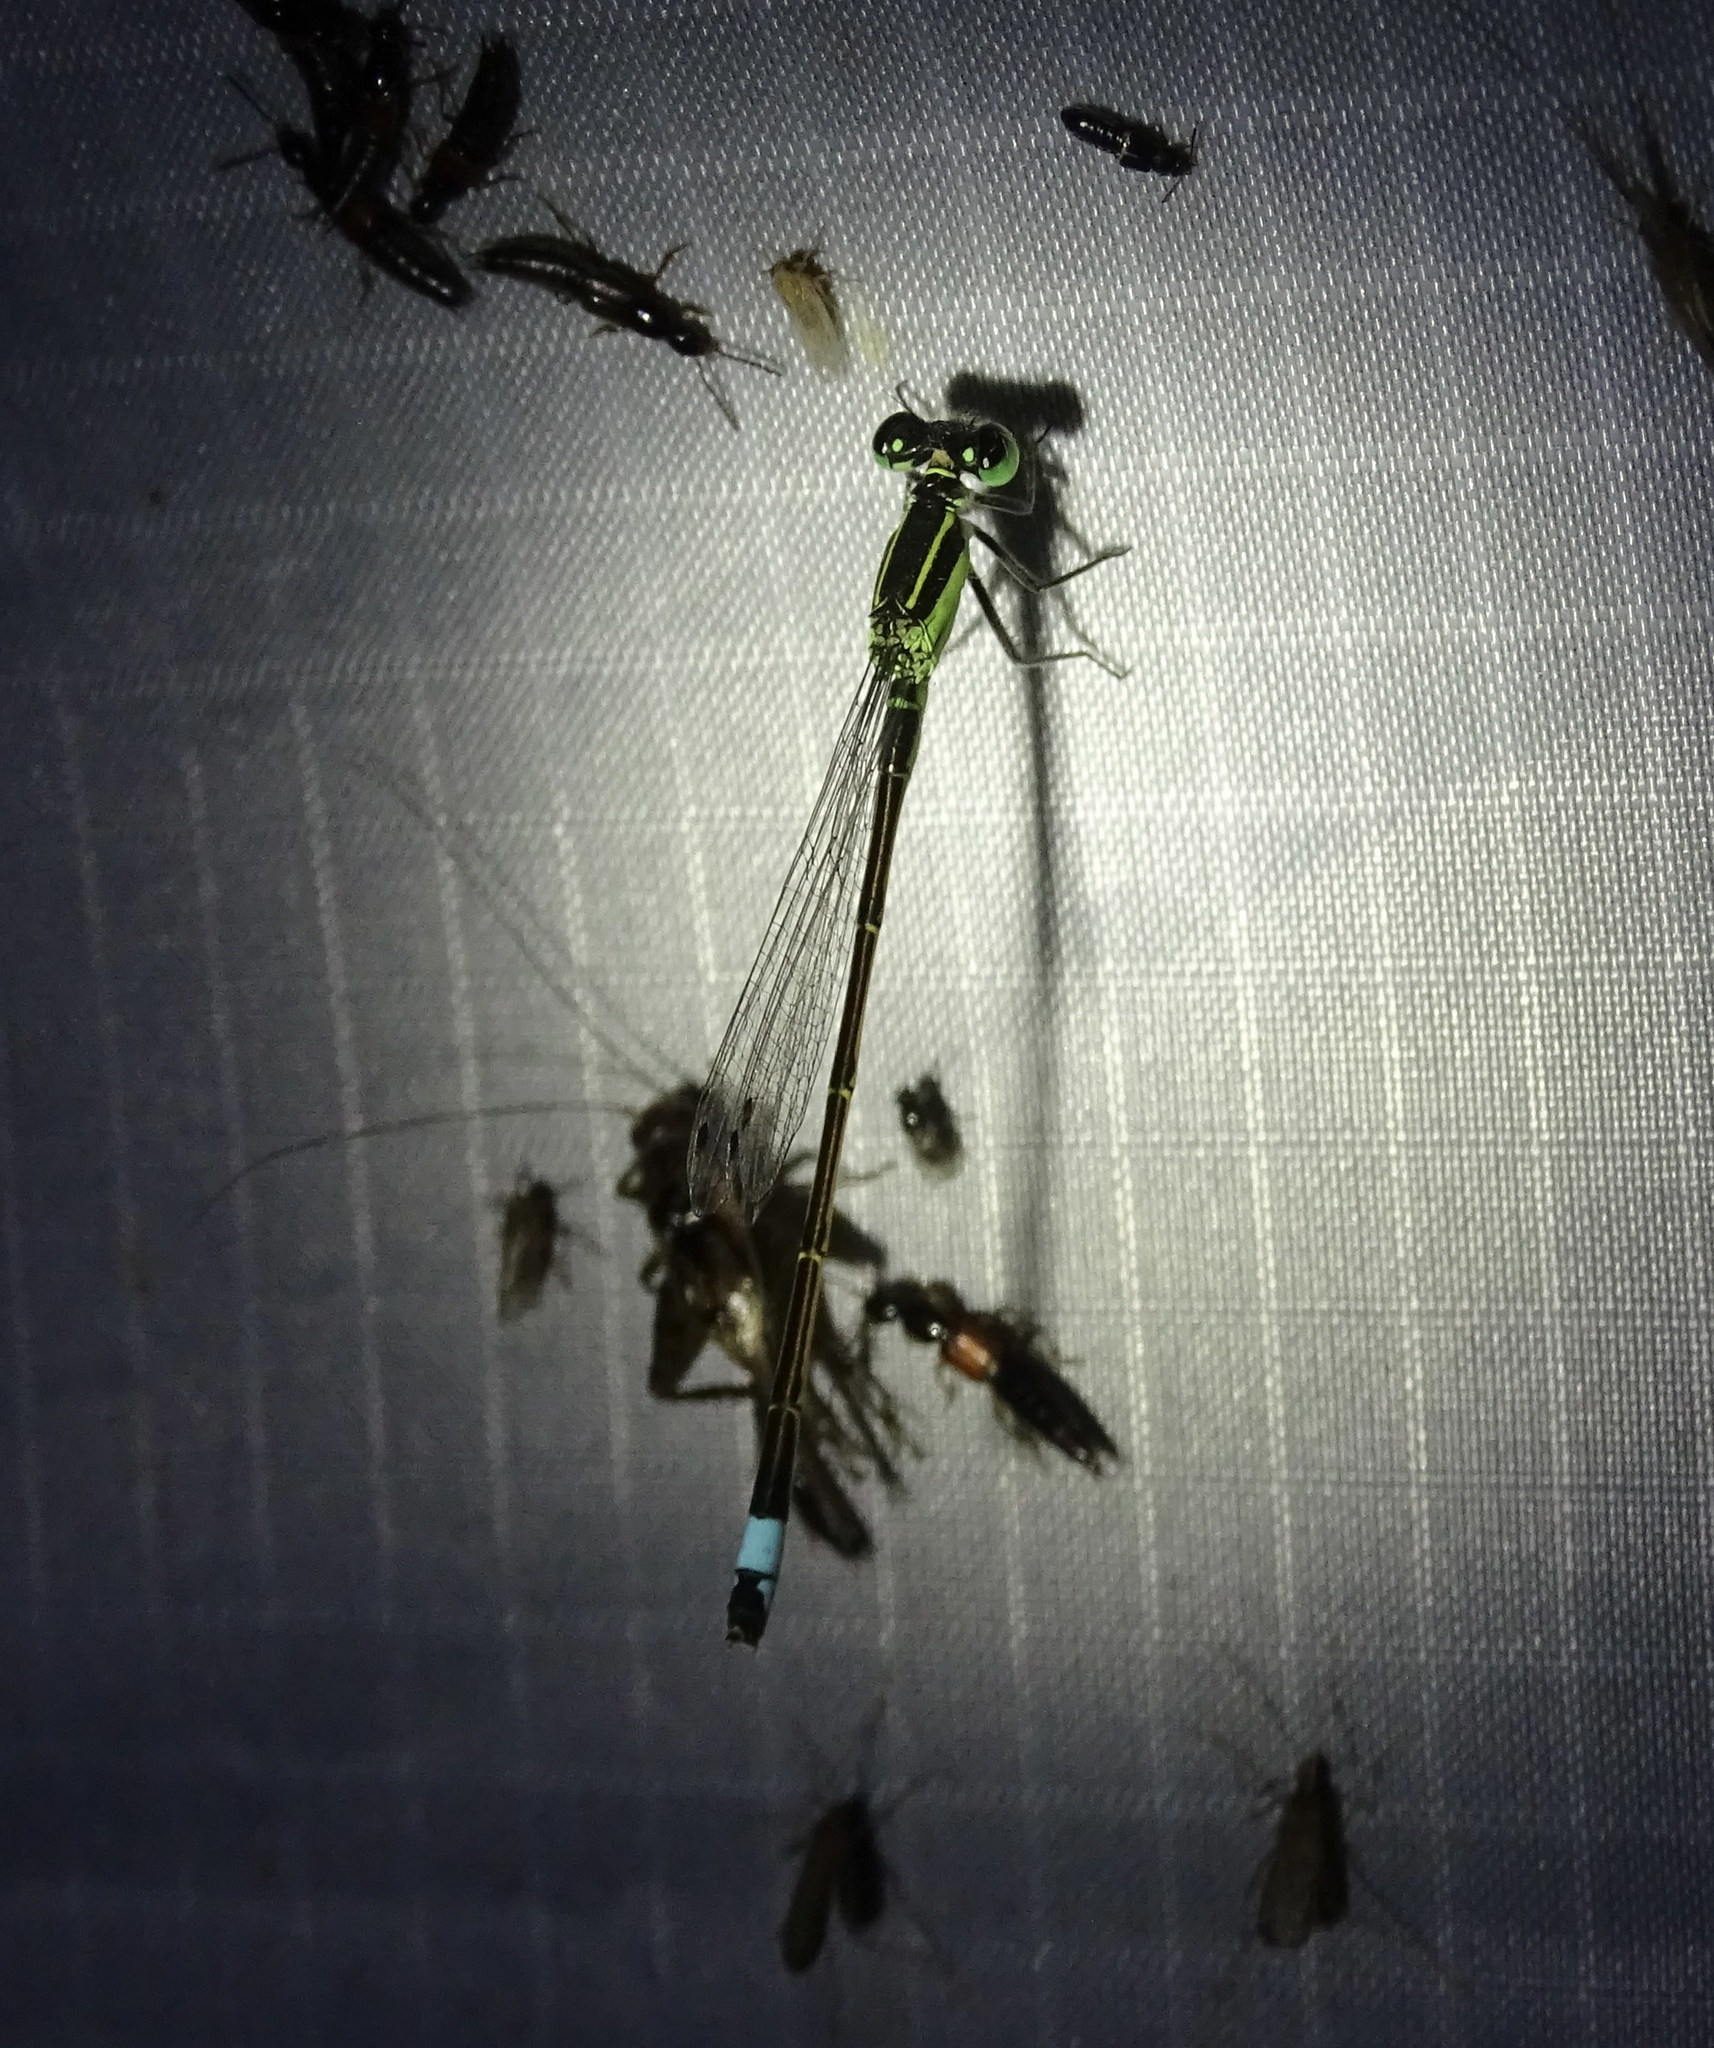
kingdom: Animalia
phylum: Arthropoda
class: Insecta
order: Odonata
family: Coenagrionidae
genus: Ischnura
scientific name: Ischnura ramburii
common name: Rambur's forktail
